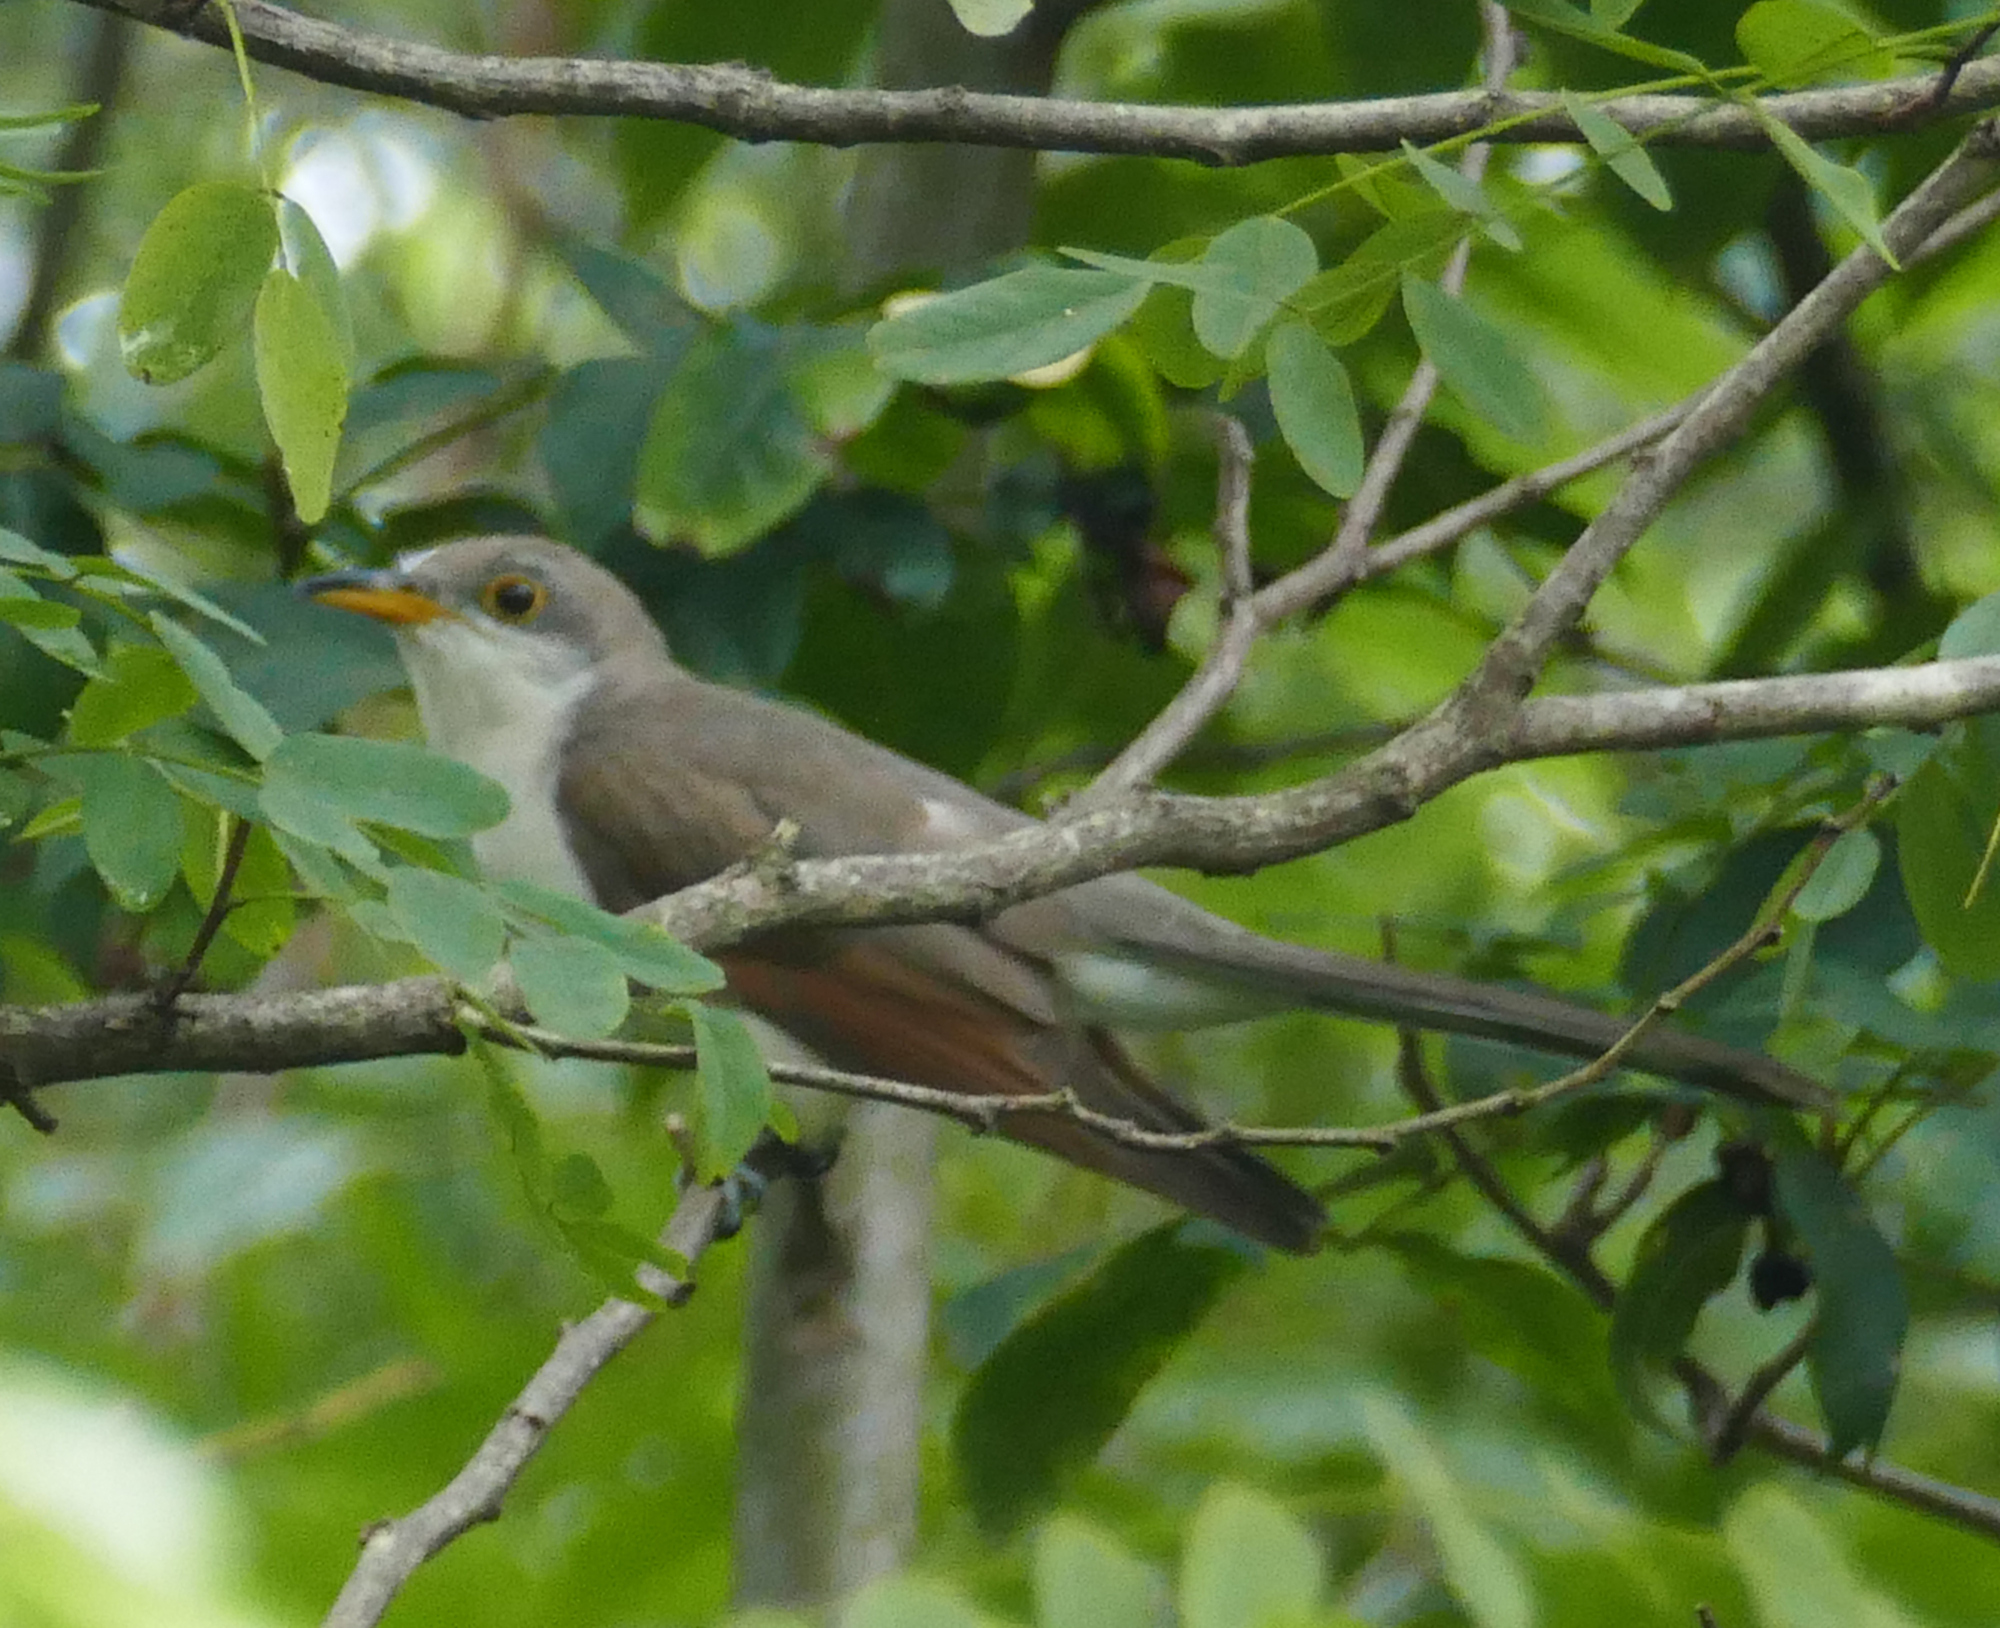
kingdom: Animalia
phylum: Chordata
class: Aves
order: Cuculiformes
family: Cuculidae
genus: Coccyzus
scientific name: Coccyzus americanus
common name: Yellow-billed cuckoo
